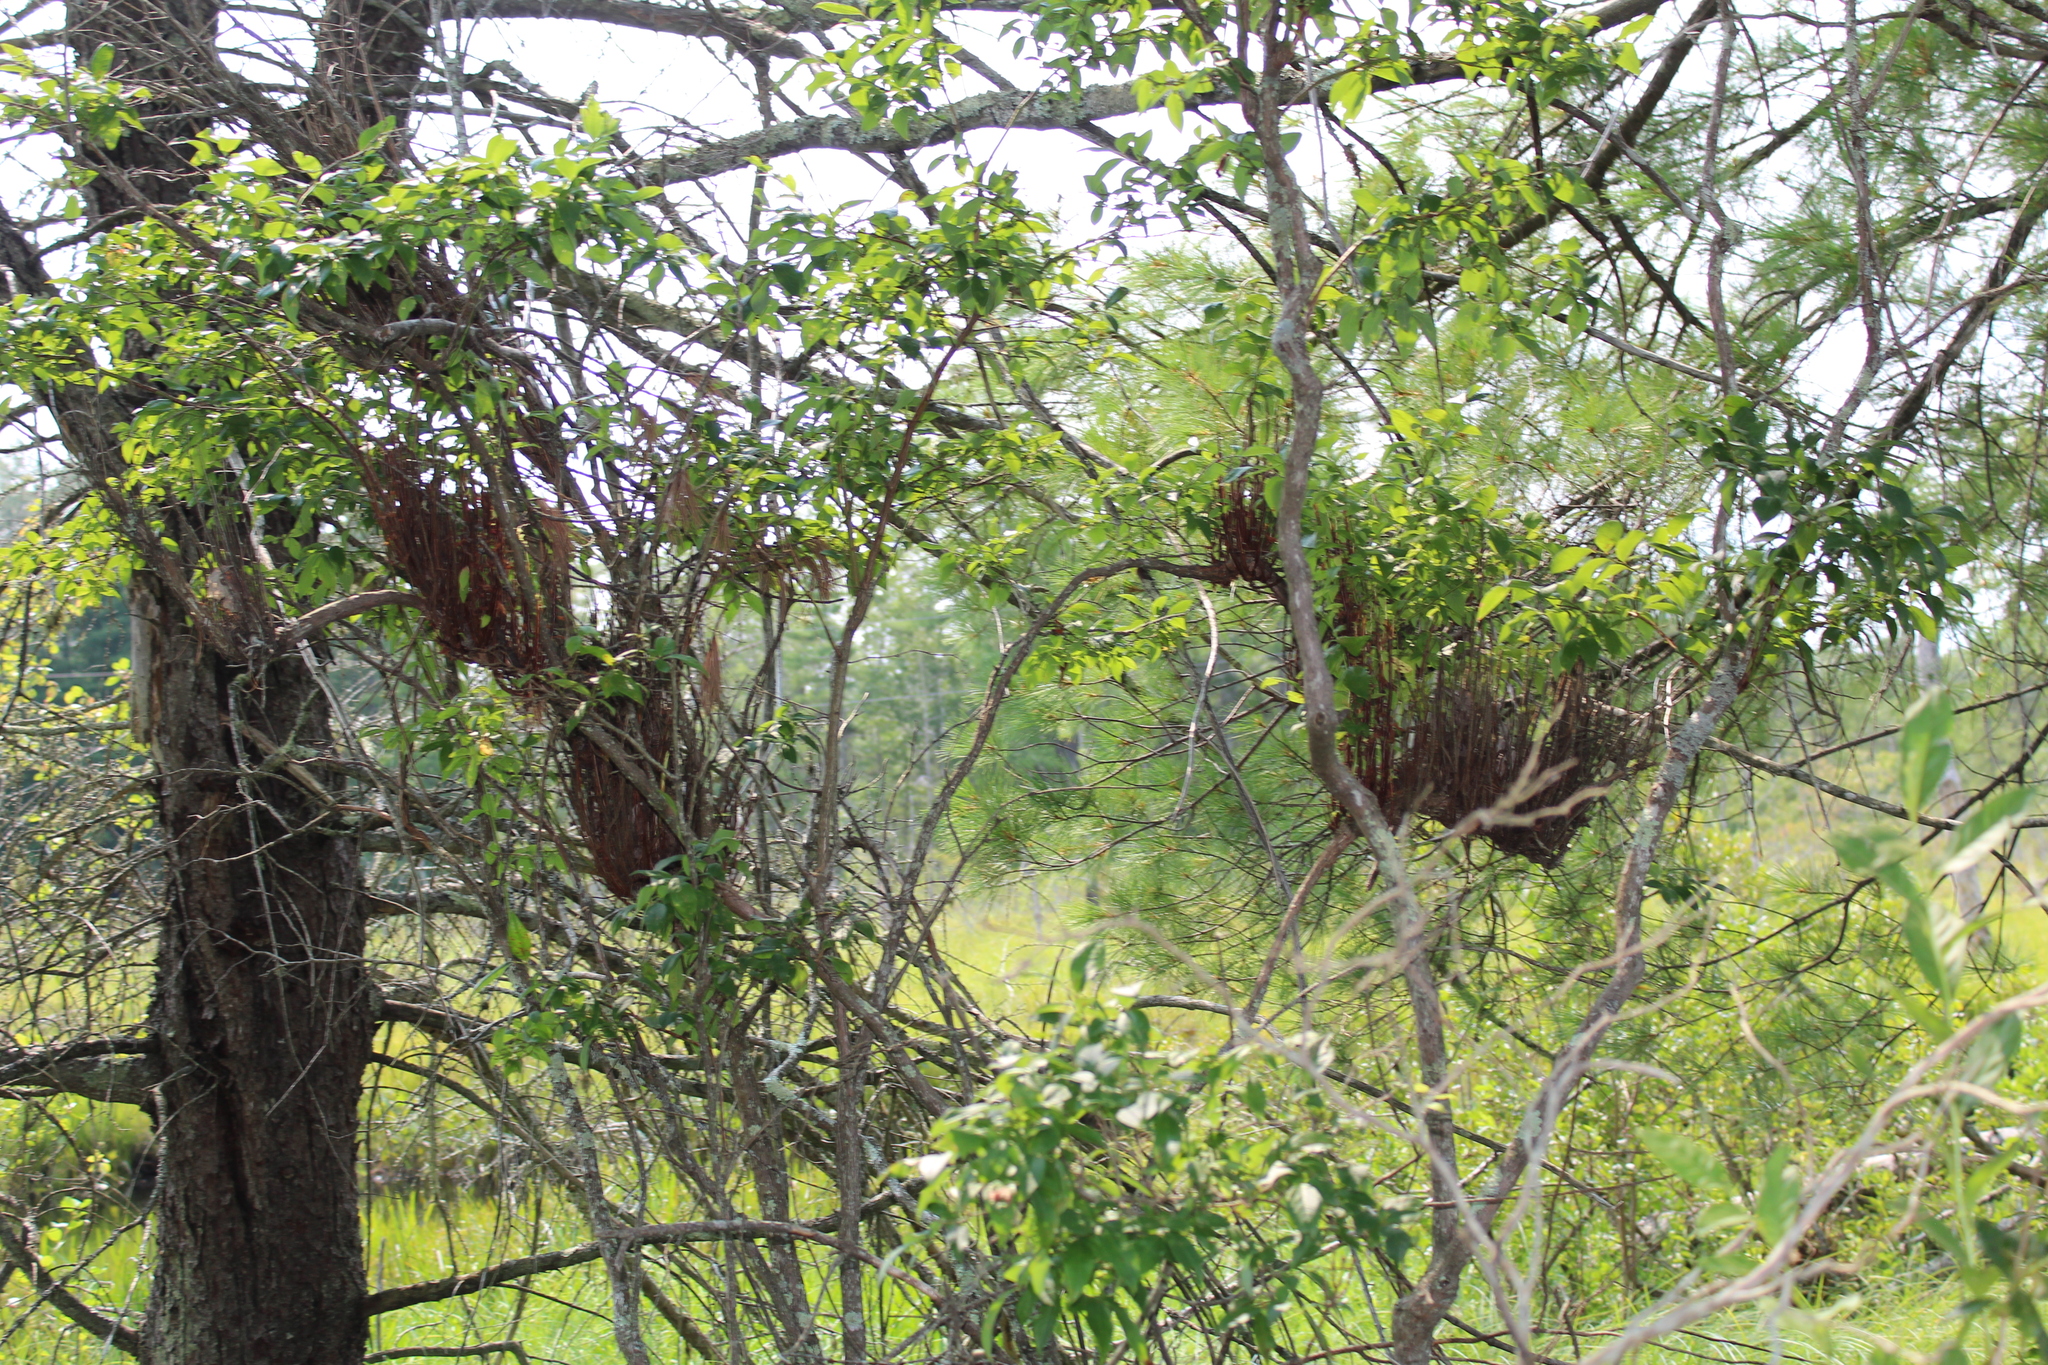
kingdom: Fungi
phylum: Basidiomycota
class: Pucciniomycetes
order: Pucciniales
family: Pucciniastraceae
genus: Calyptospora
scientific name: Calyptospora columnaris
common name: Huckleberry broom rust fungus
